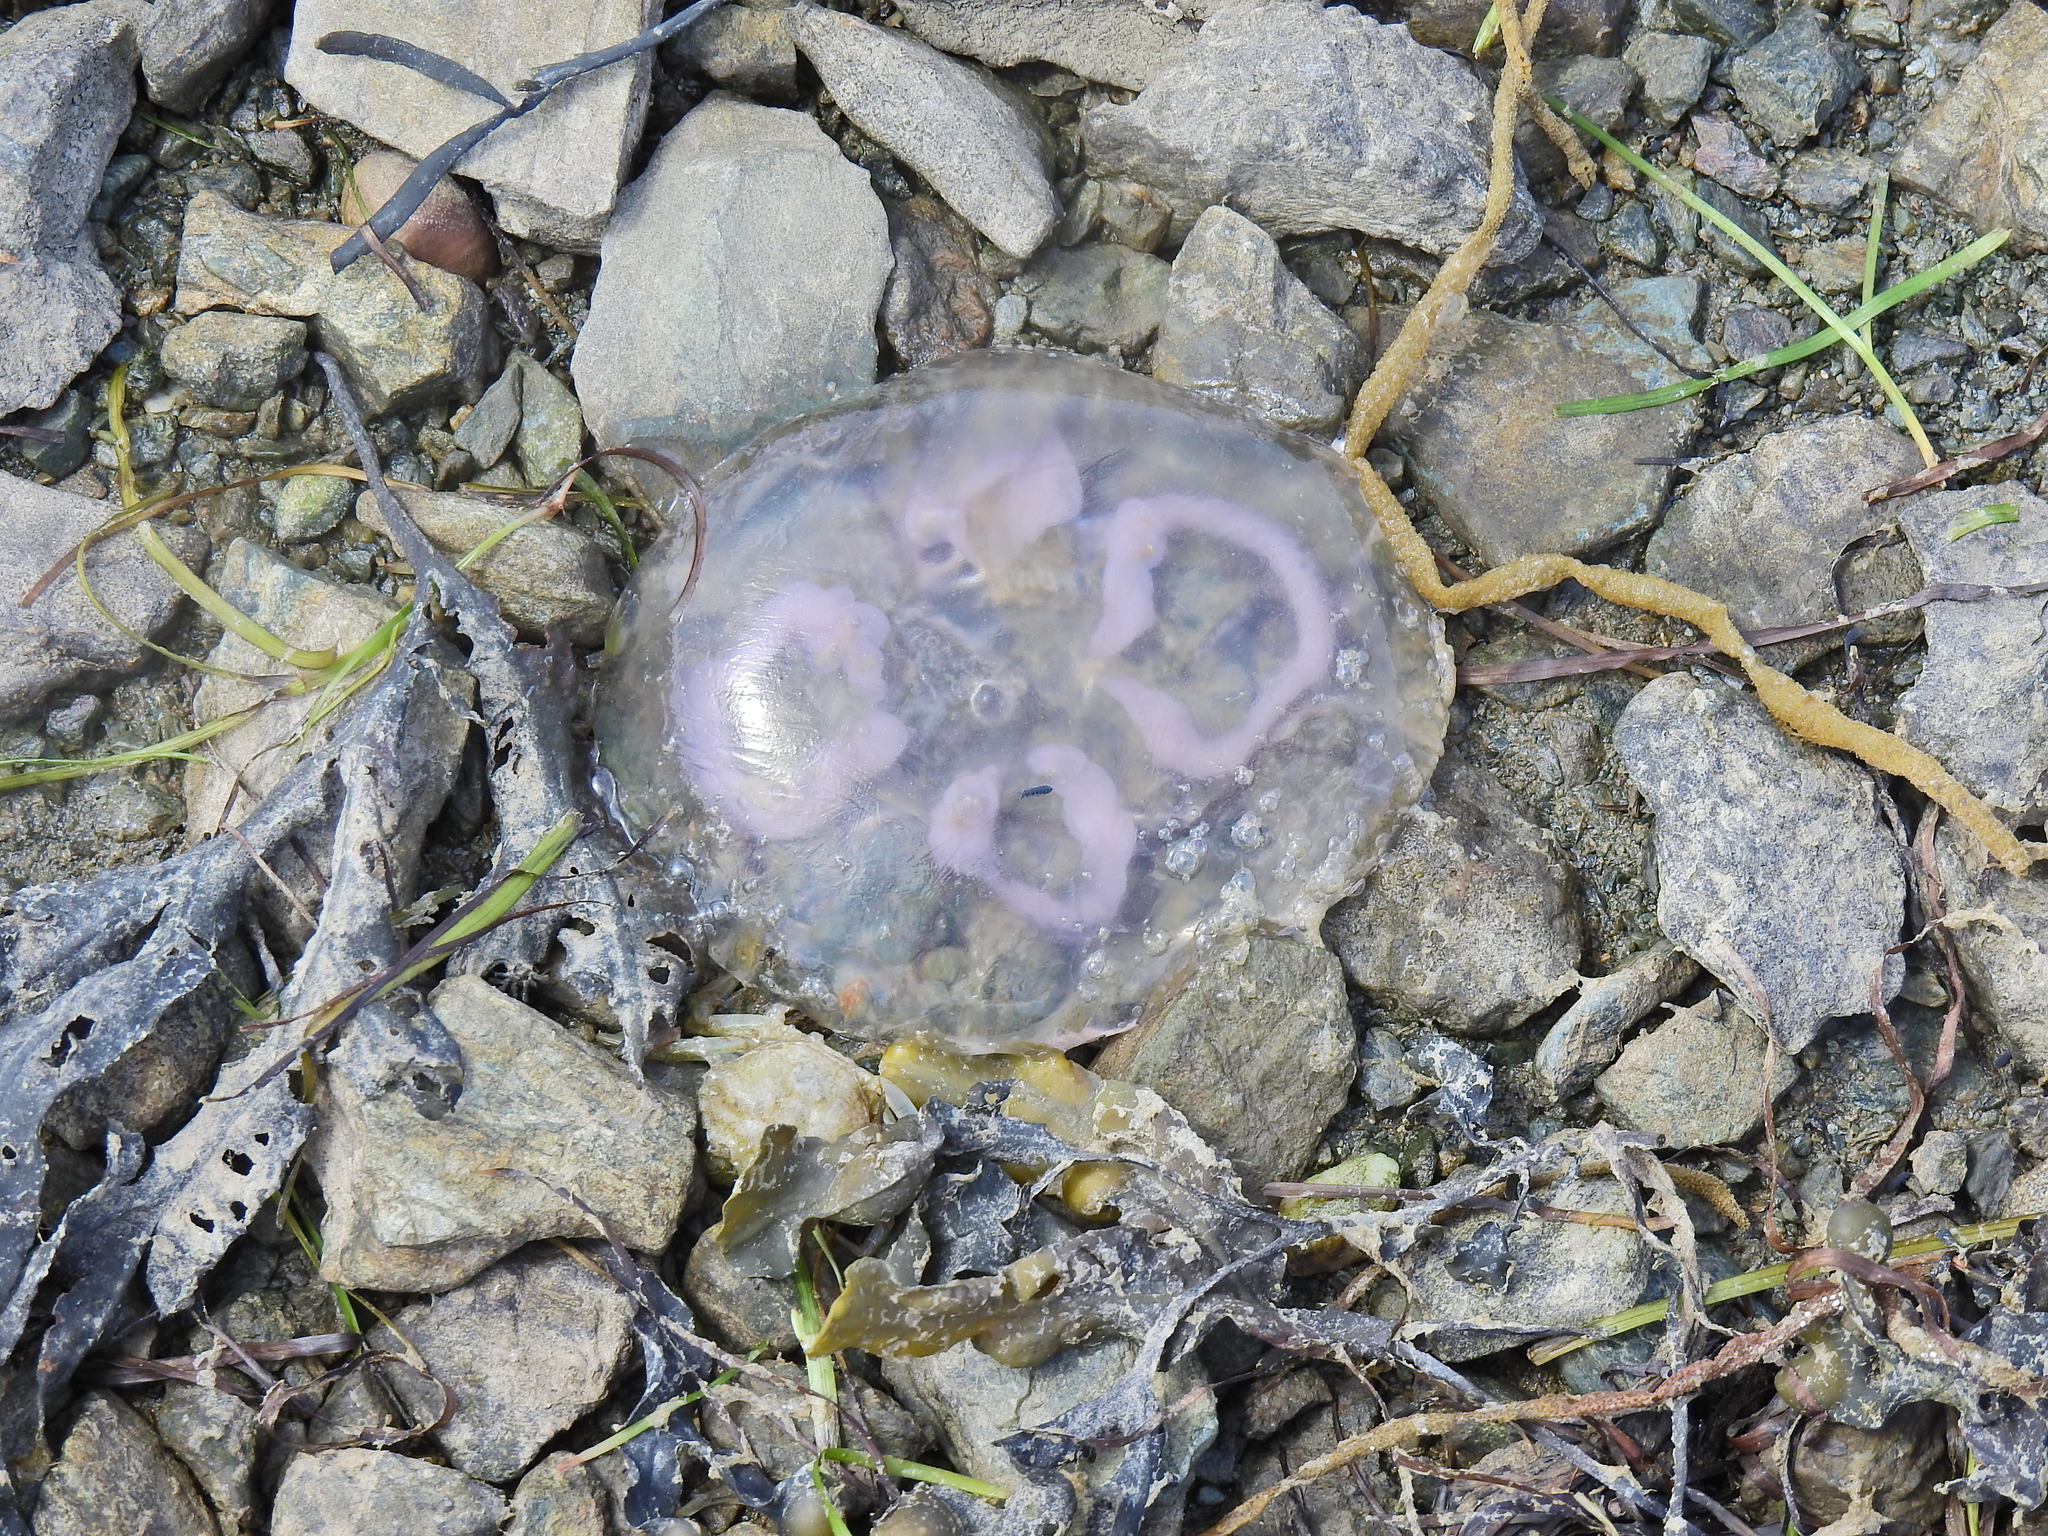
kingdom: Animalia
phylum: Cnidaria
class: Scyphozoa
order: Semaeostomeae
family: Ulmaridae
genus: Aurelia
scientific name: Aurelia aurita
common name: Moon jellyfish
